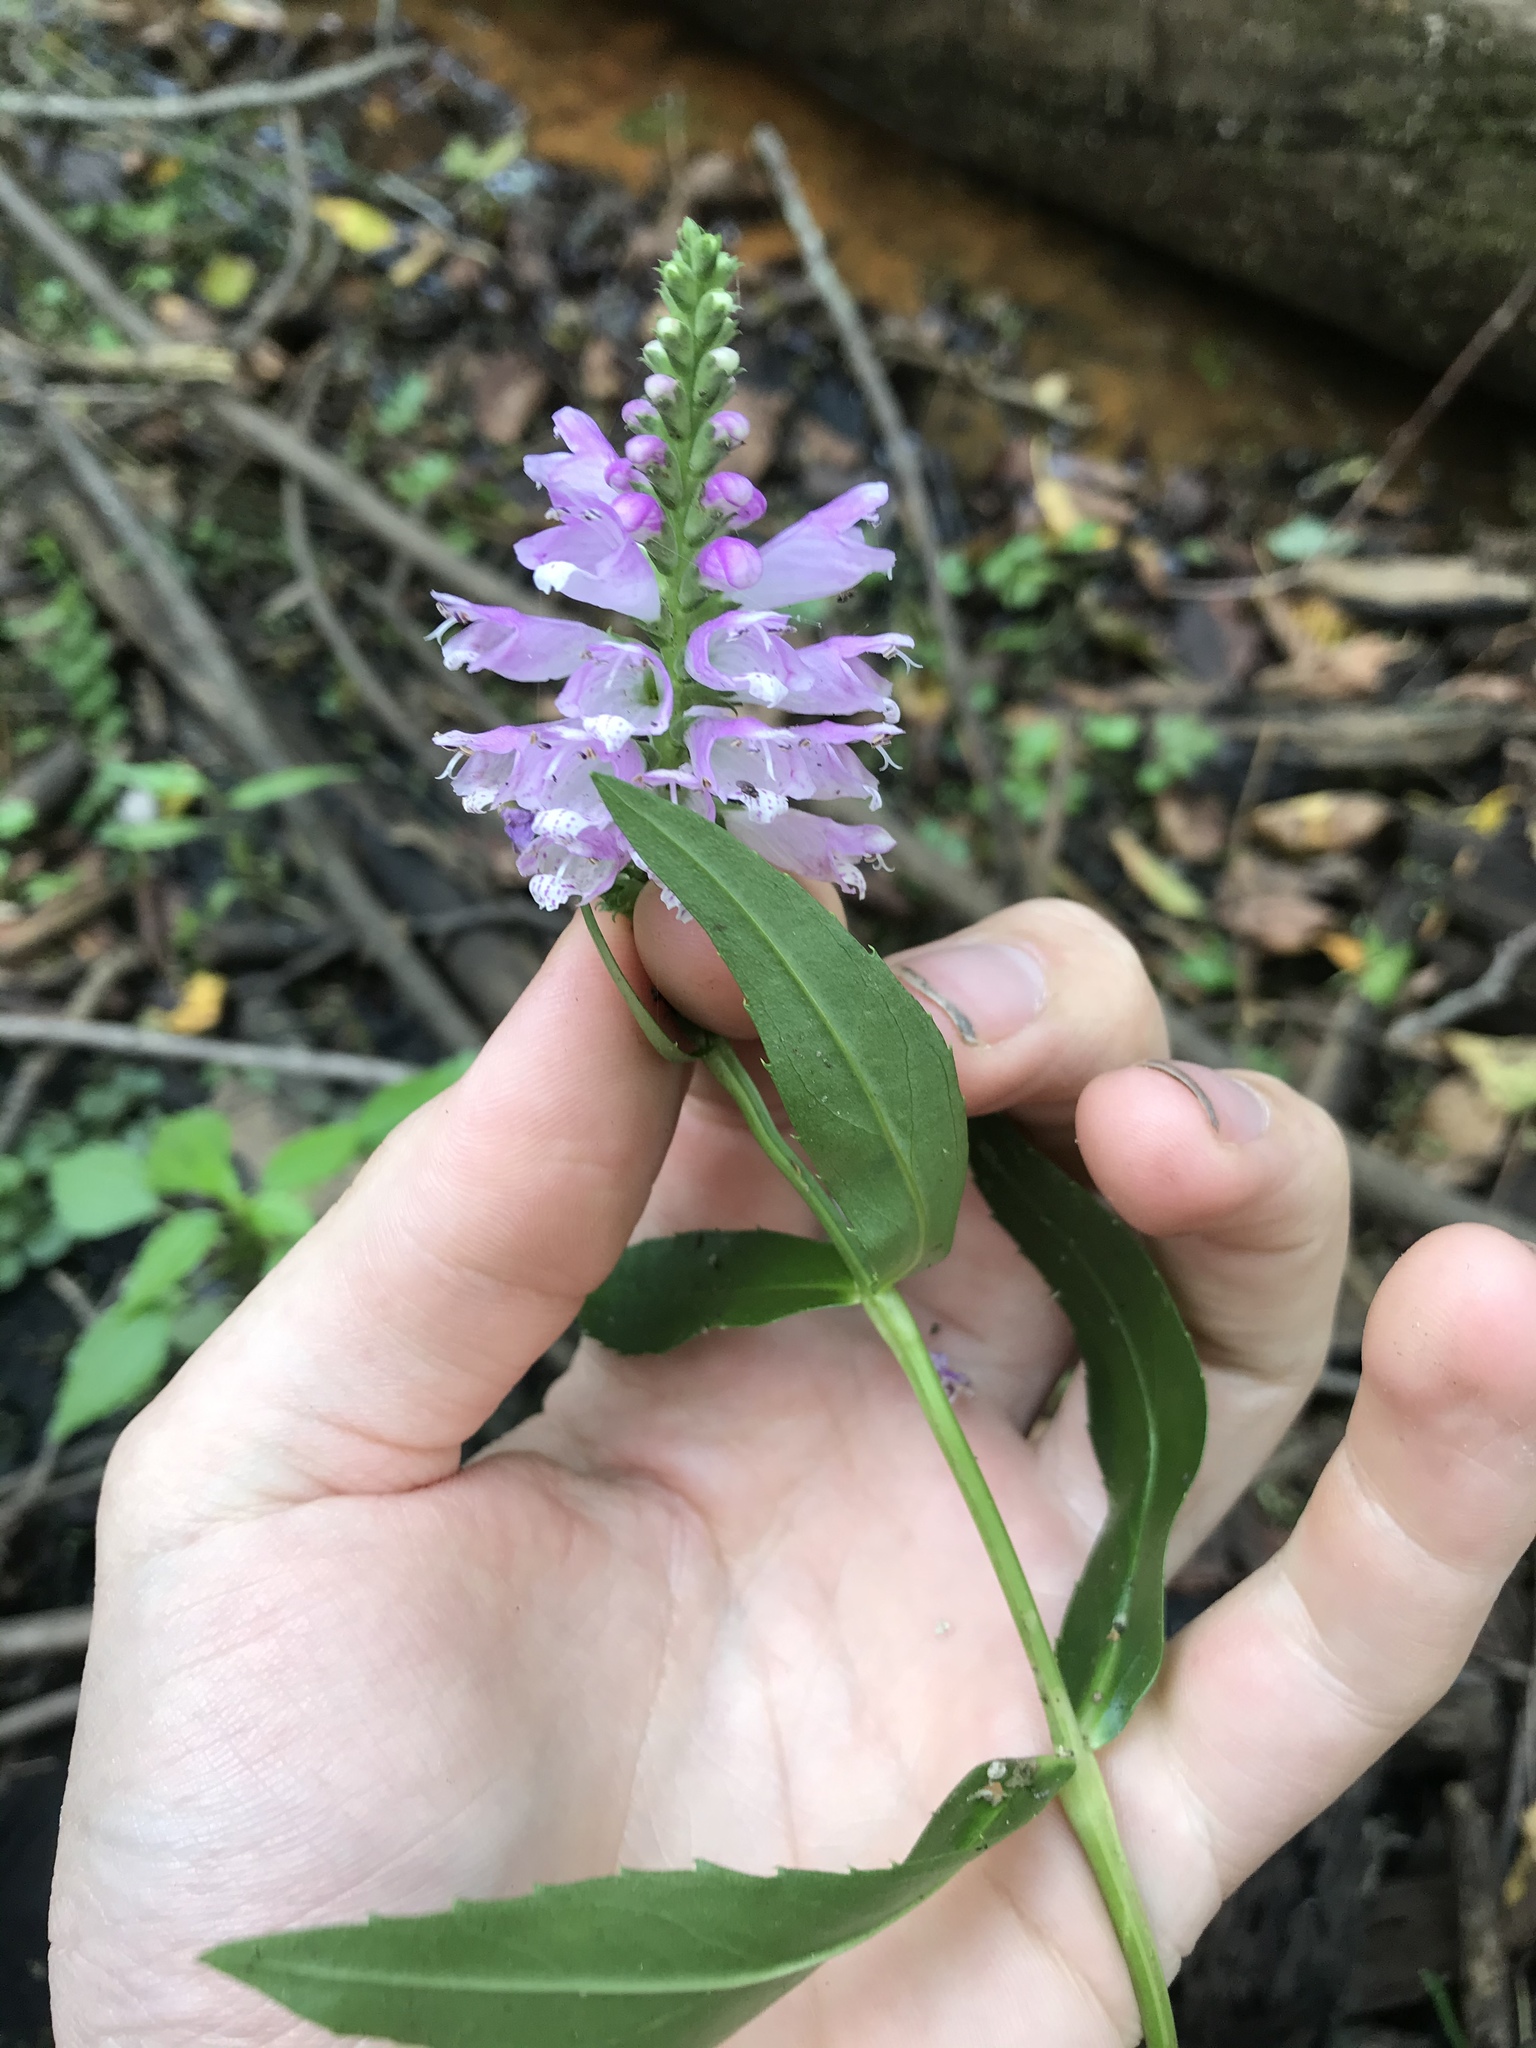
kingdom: Plantae
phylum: Tracheophyta
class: Magnoliopsida
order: Lamiales
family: Lamiaceae
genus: Physostegia
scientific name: Physostegia virginiana
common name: Obedient-plant
